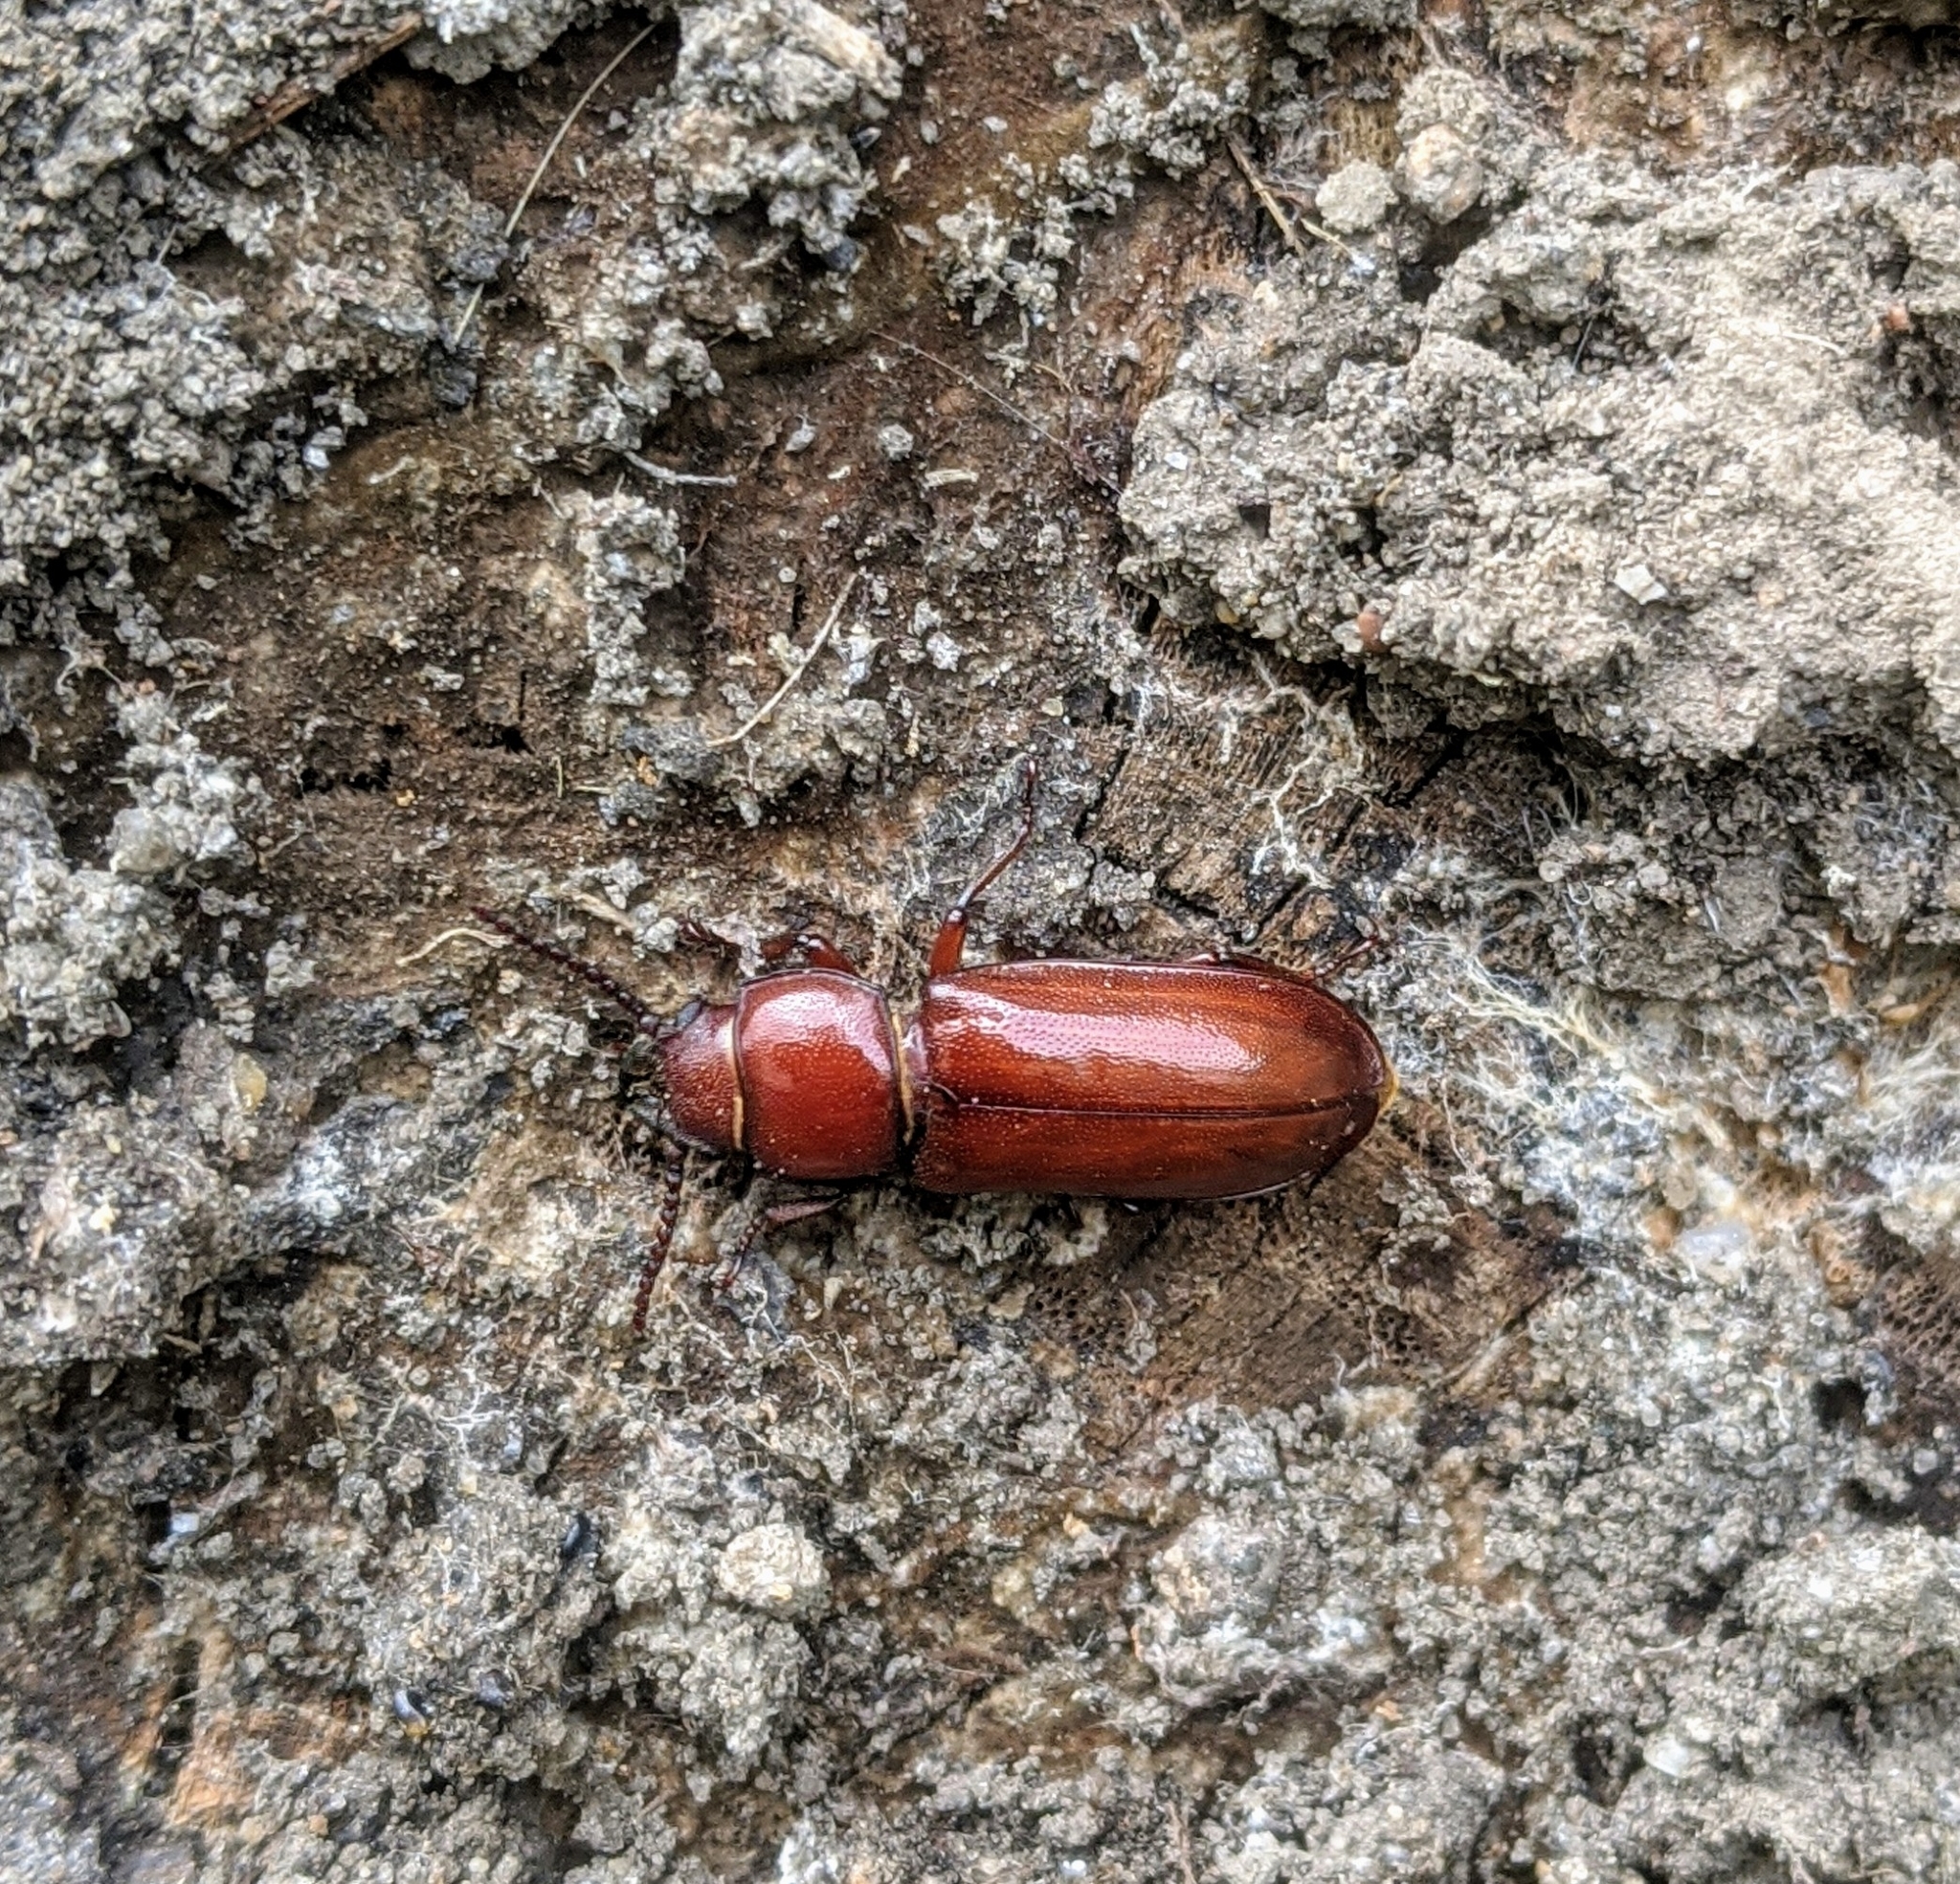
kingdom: Animalia
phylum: Arthropoda
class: Insecta
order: Coleoptera
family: Cerambycidae
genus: Neandra
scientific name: Neandra brunnea
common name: Pole borer
